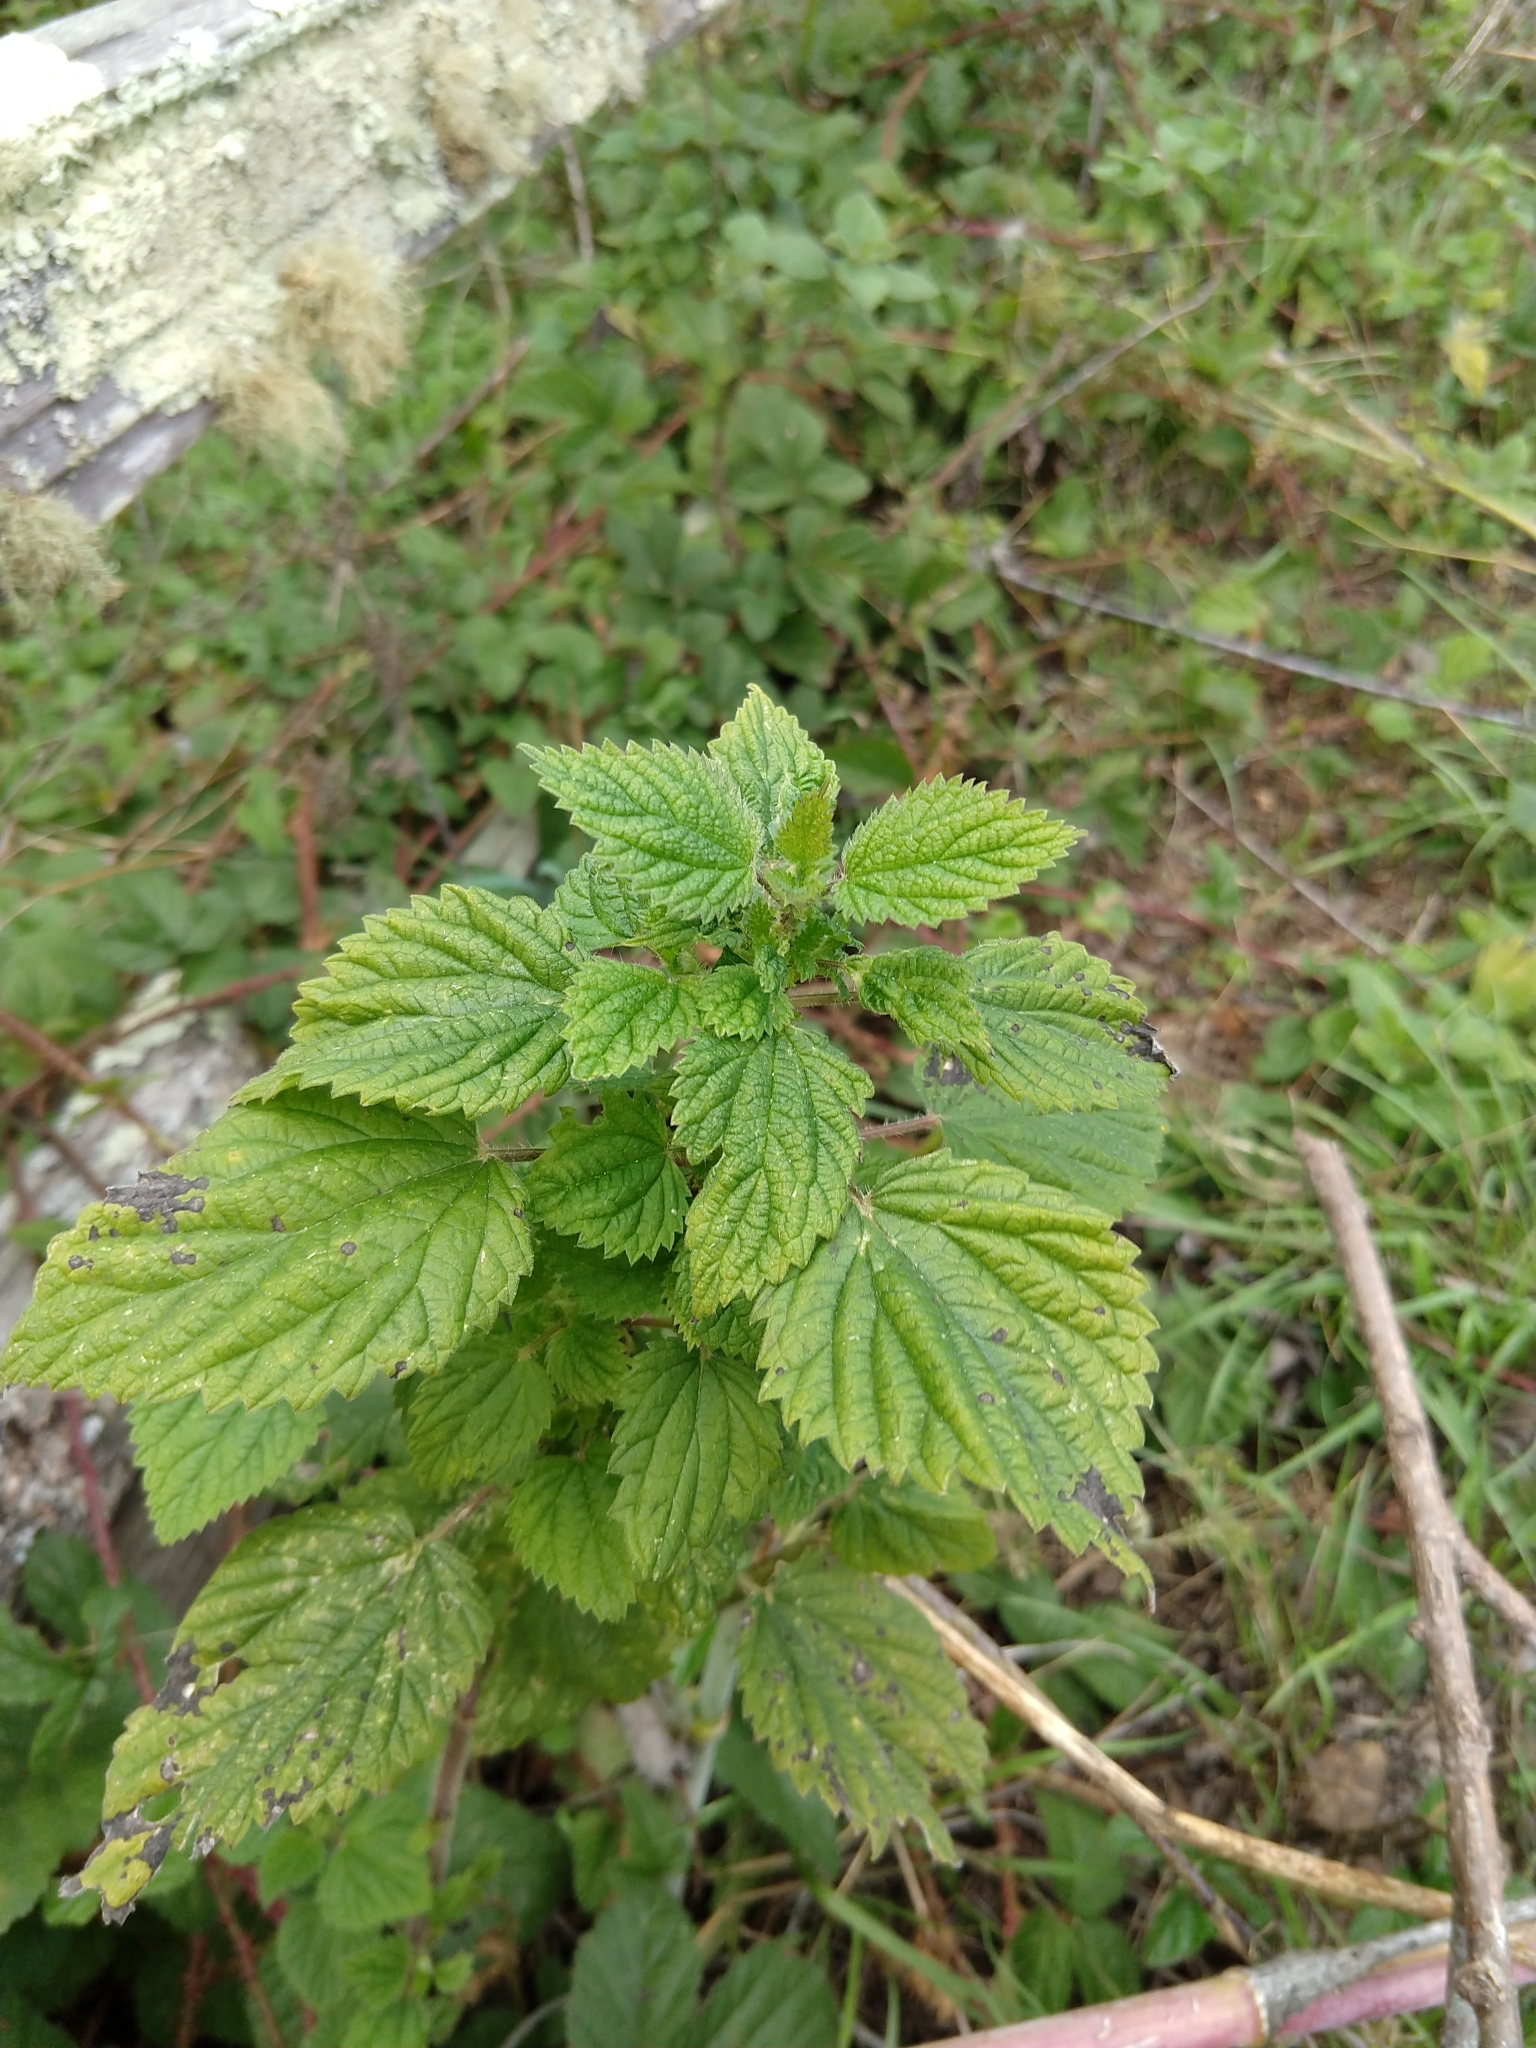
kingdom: Plantae
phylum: Tracheophyta
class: Magnoliopsida
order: Rosales
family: Urticaceae
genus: Urtica
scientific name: Urtica dioica
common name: Common nettle
